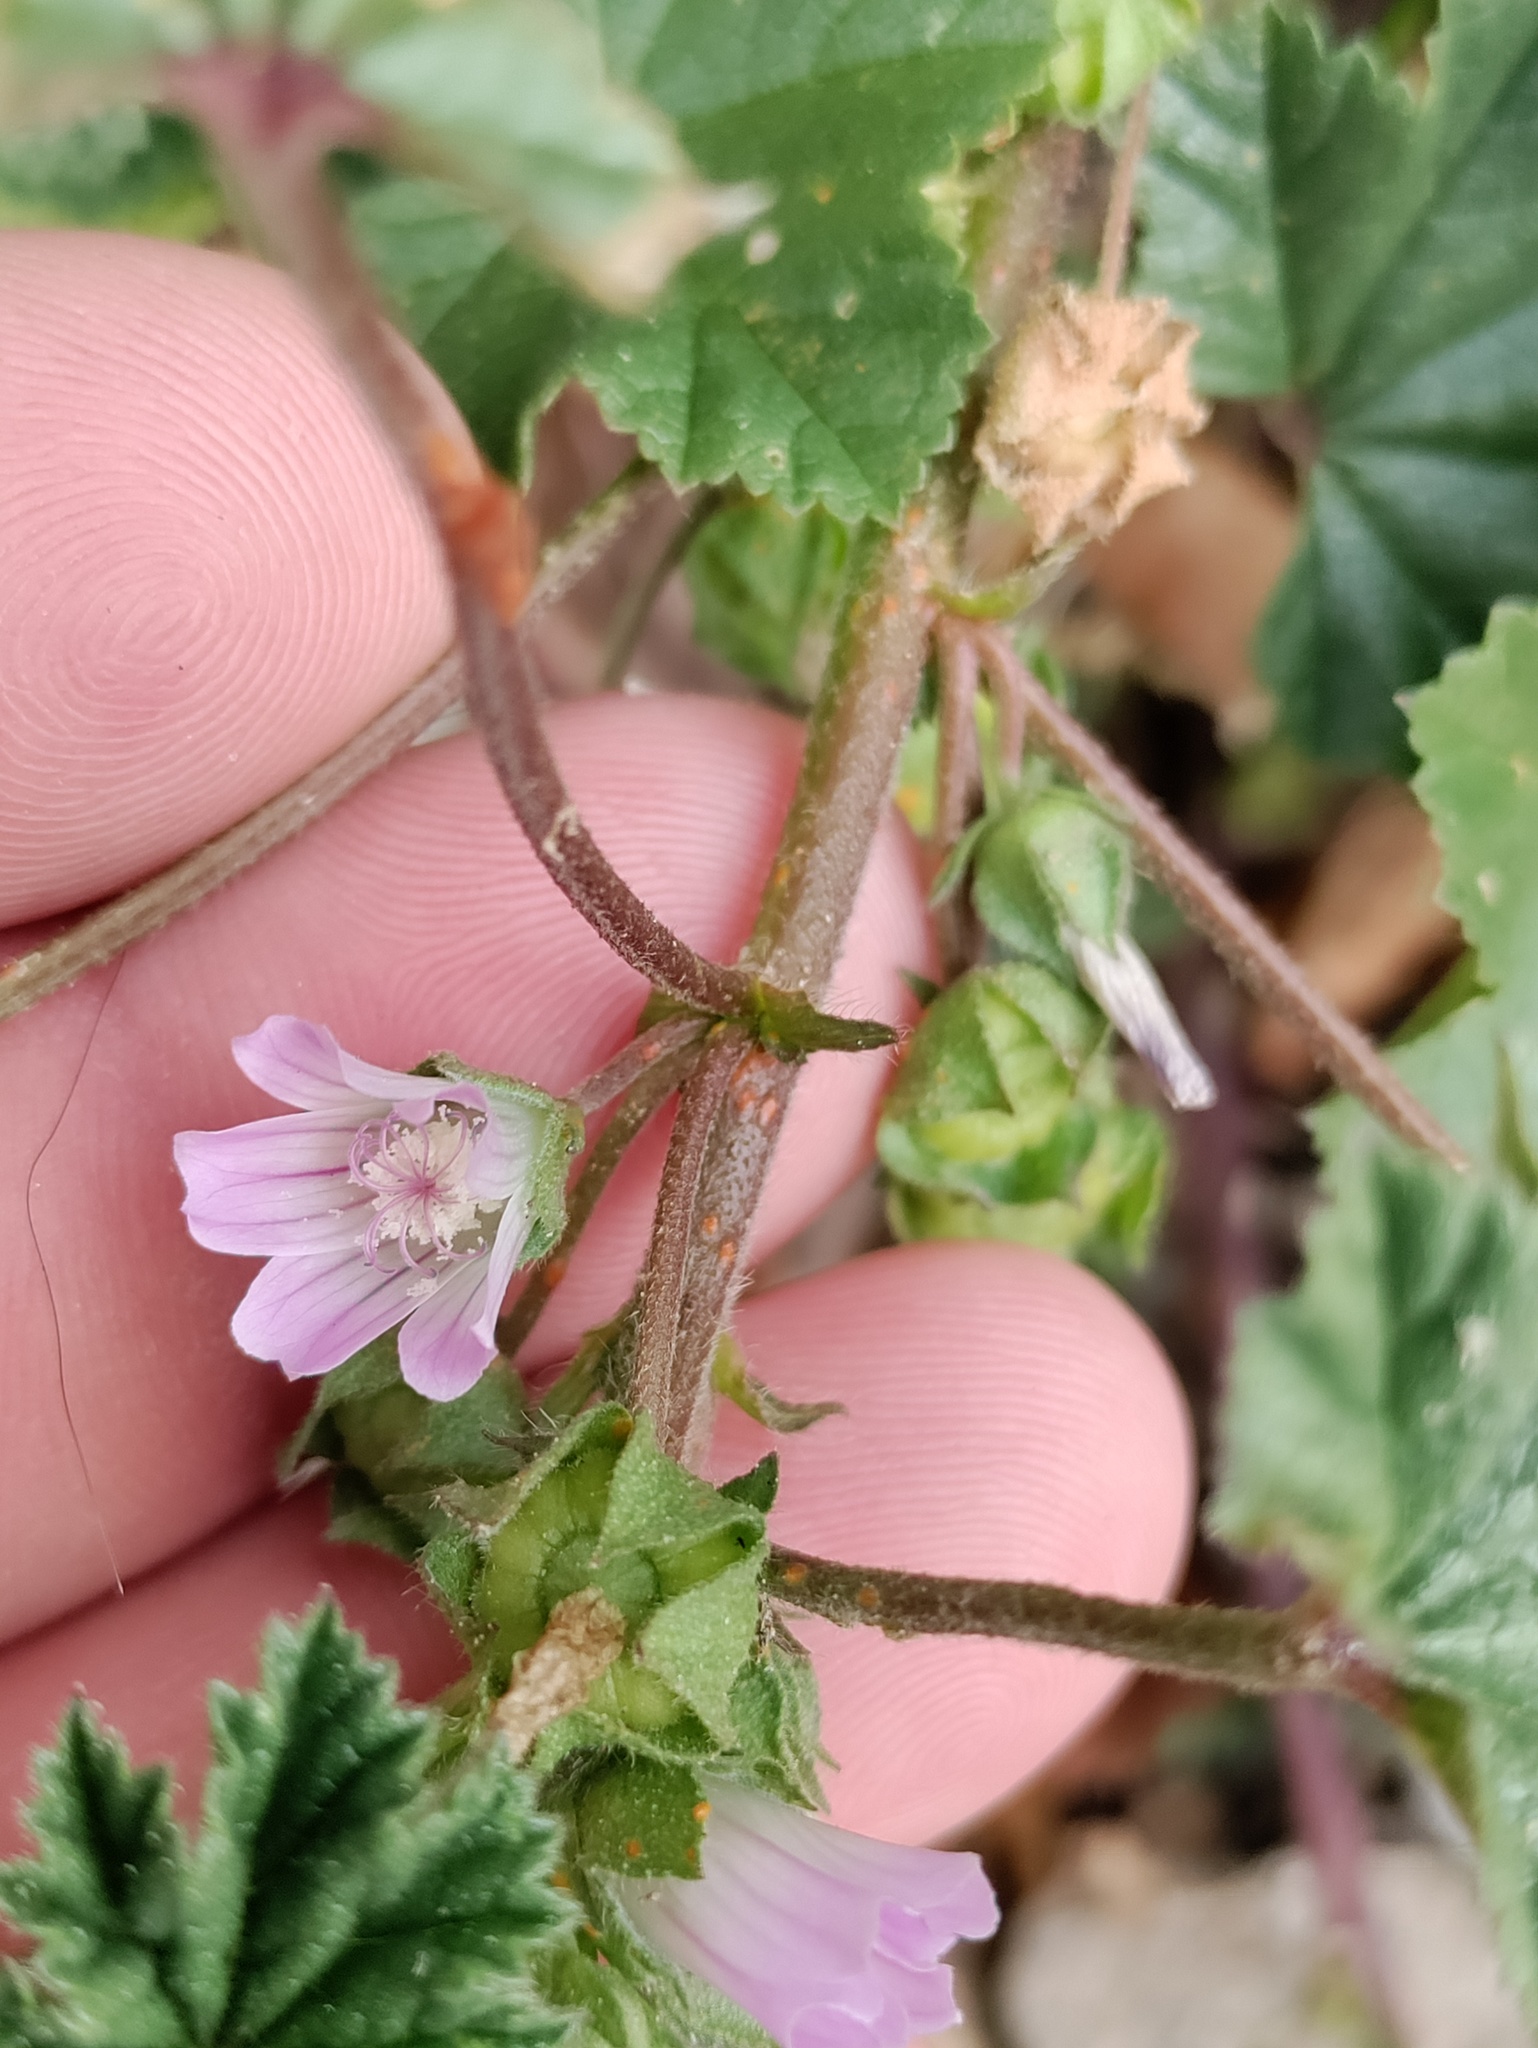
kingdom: Plantae
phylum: Tracheophyta
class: Magnoliopsida
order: Malvales
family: Malvaceae
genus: Malva
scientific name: Malva neglecta
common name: Common mallow
